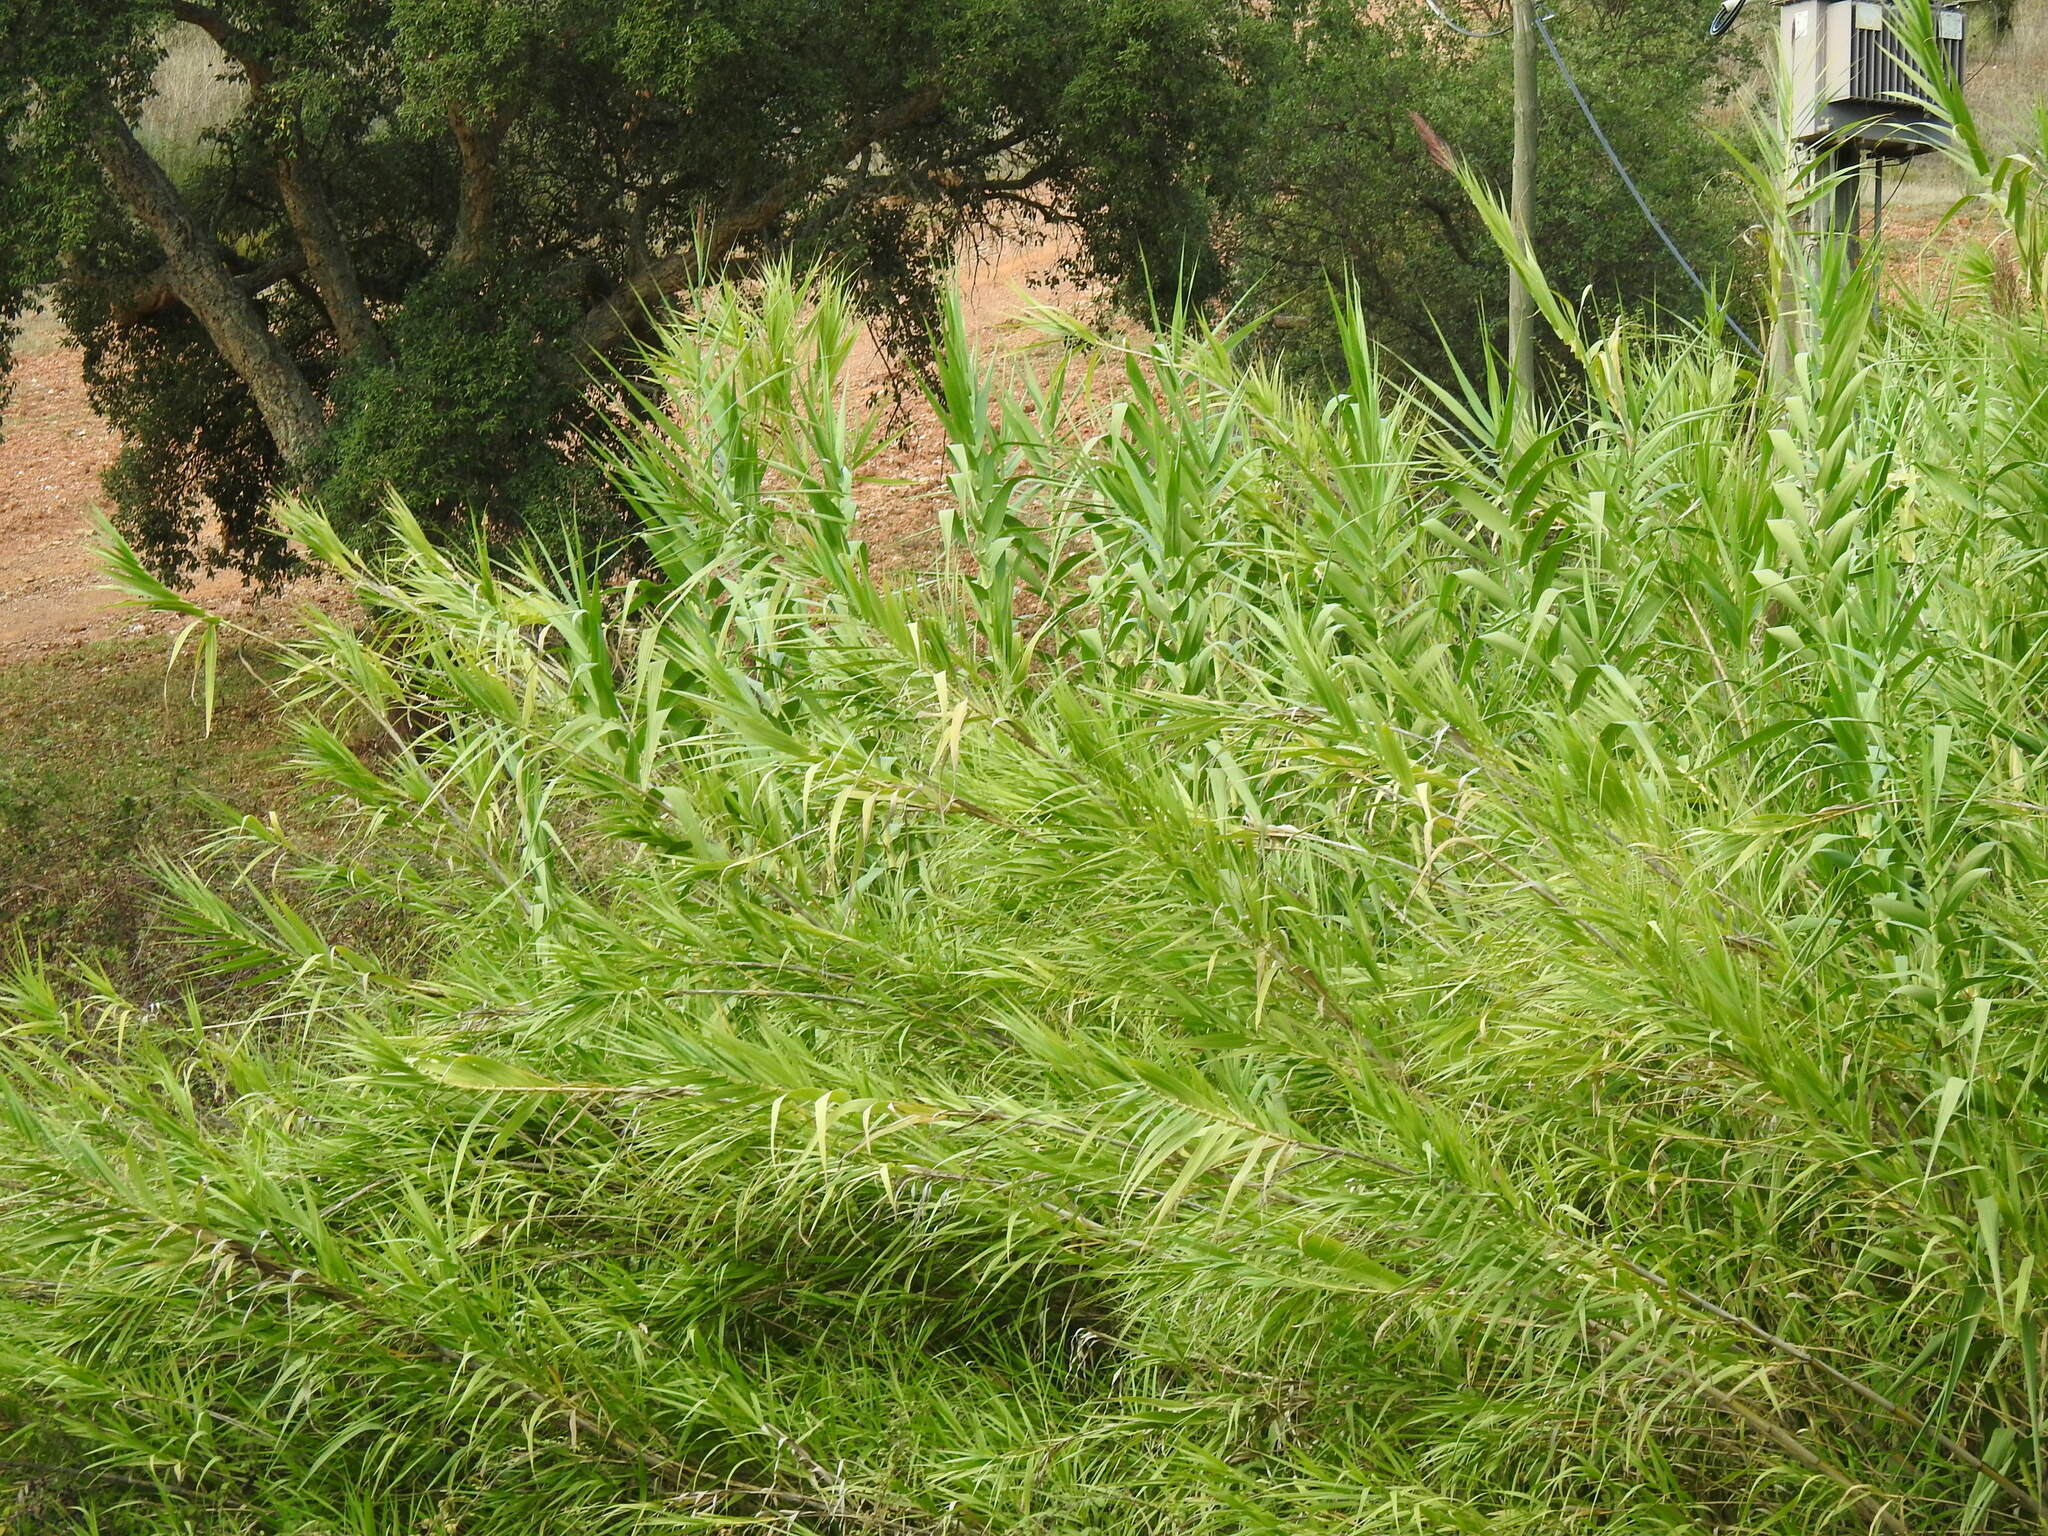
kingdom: Plantae
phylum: Tracheophyta
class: Liliopsida
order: Poales
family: Poaceae
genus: Arundo
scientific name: Arundo donax
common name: Giant reed
